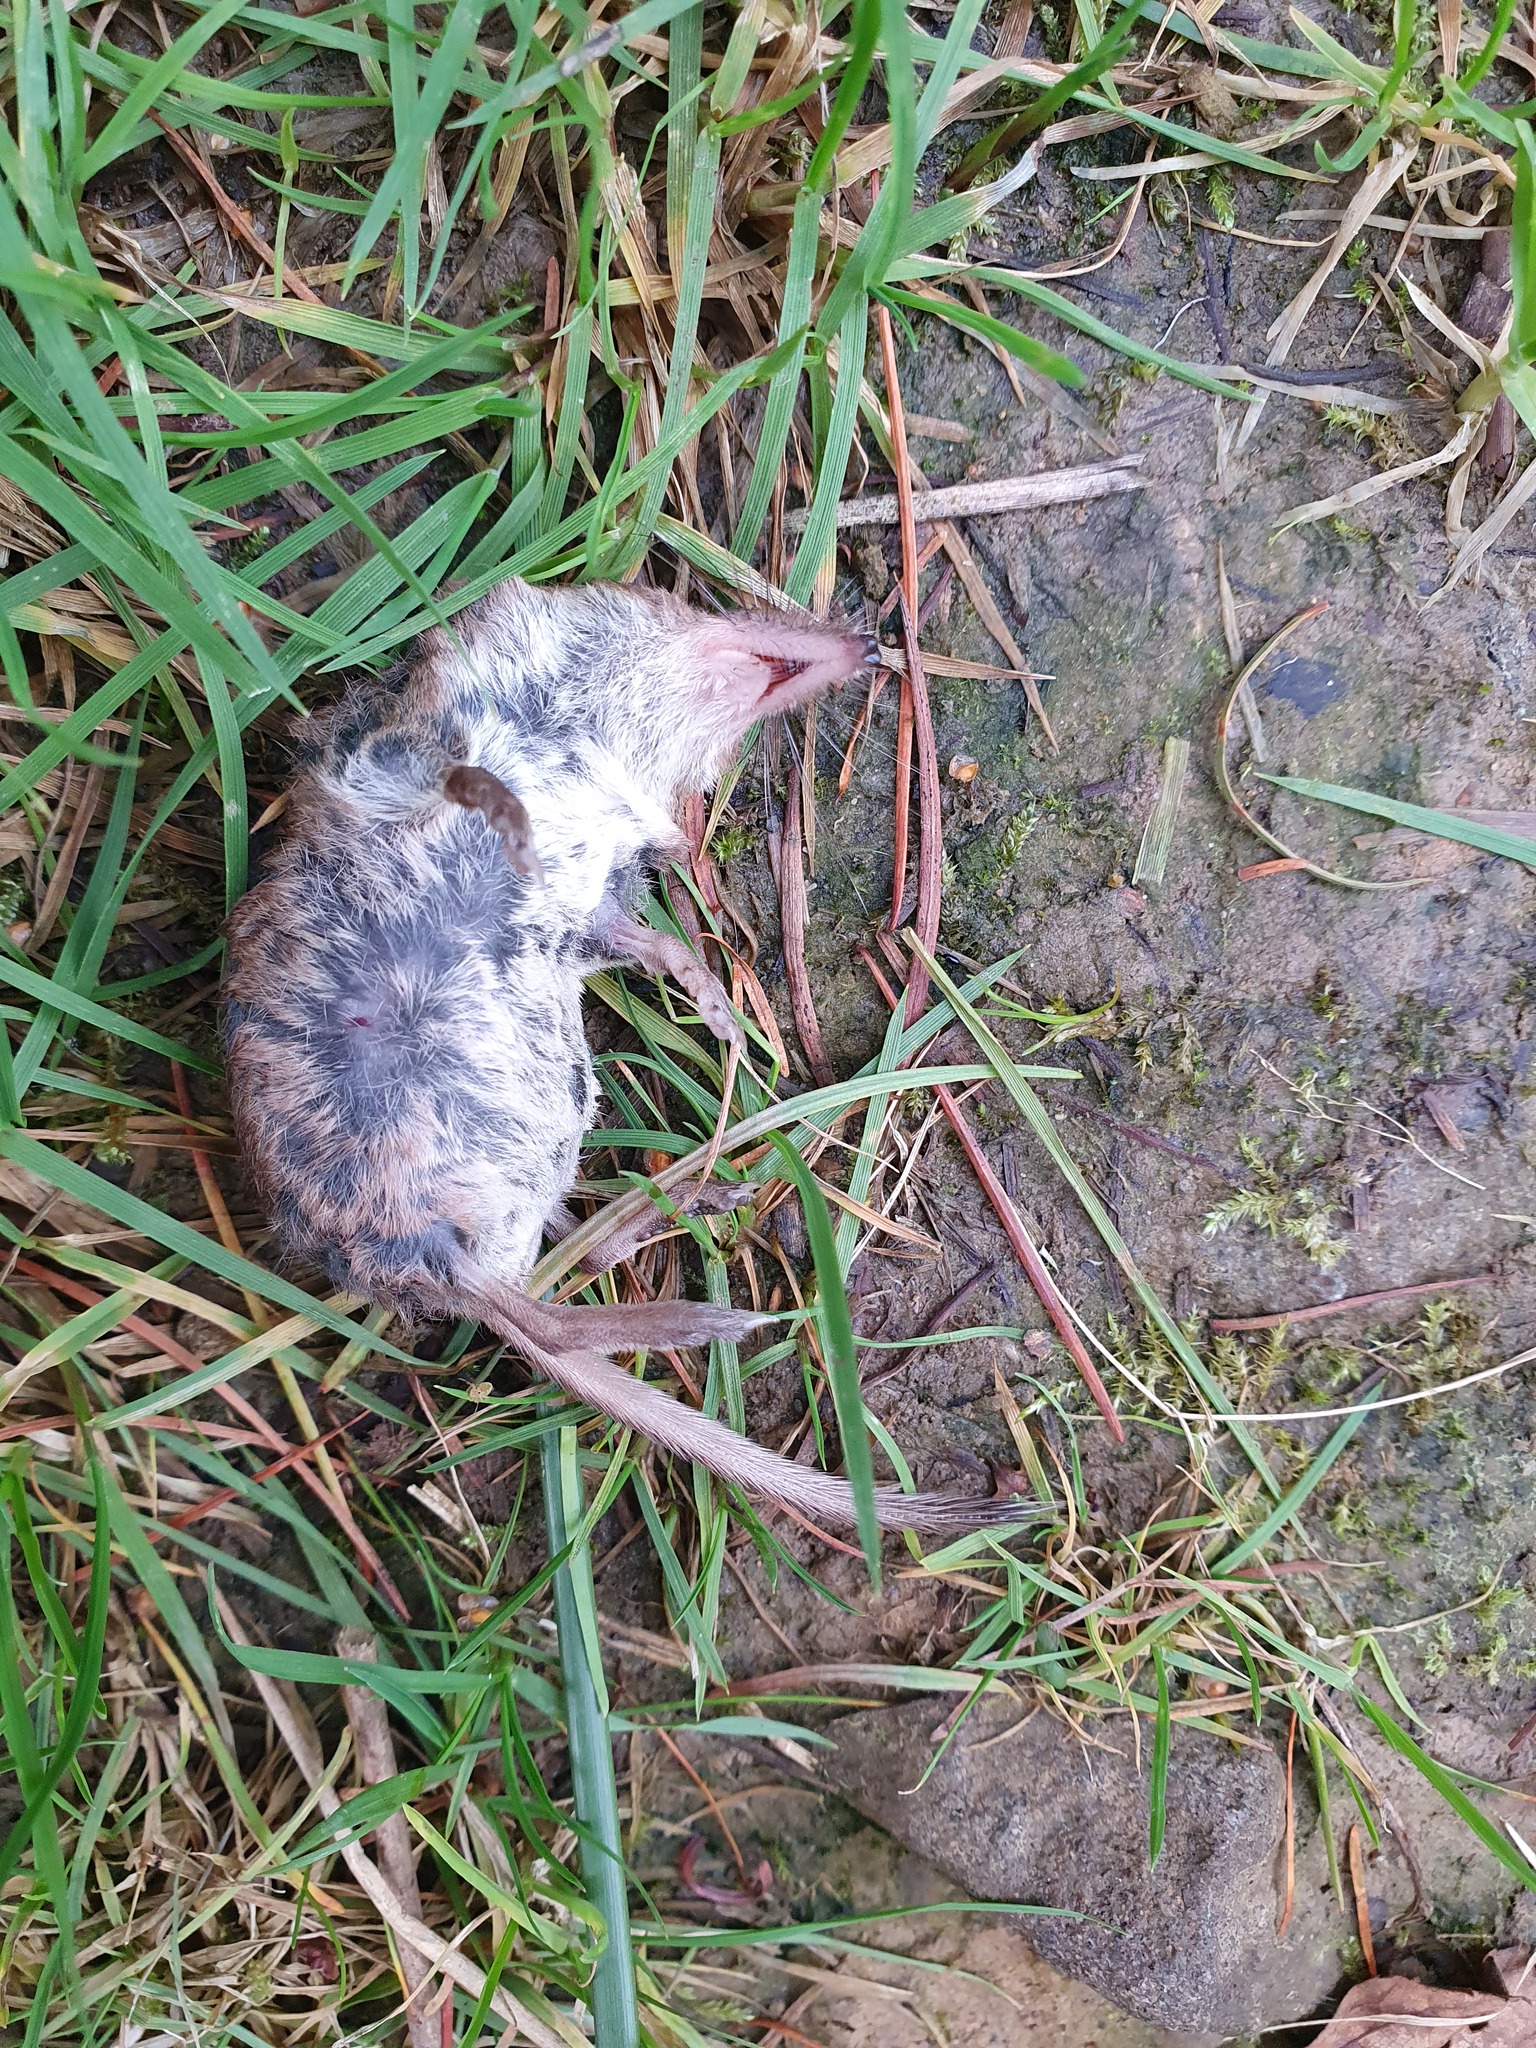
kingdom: Animalia
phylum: Chordata
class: Mammalia
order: Soricomorpha
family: Soricidae
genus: Sorex
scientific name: Sorex araneus
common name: Common shrew
